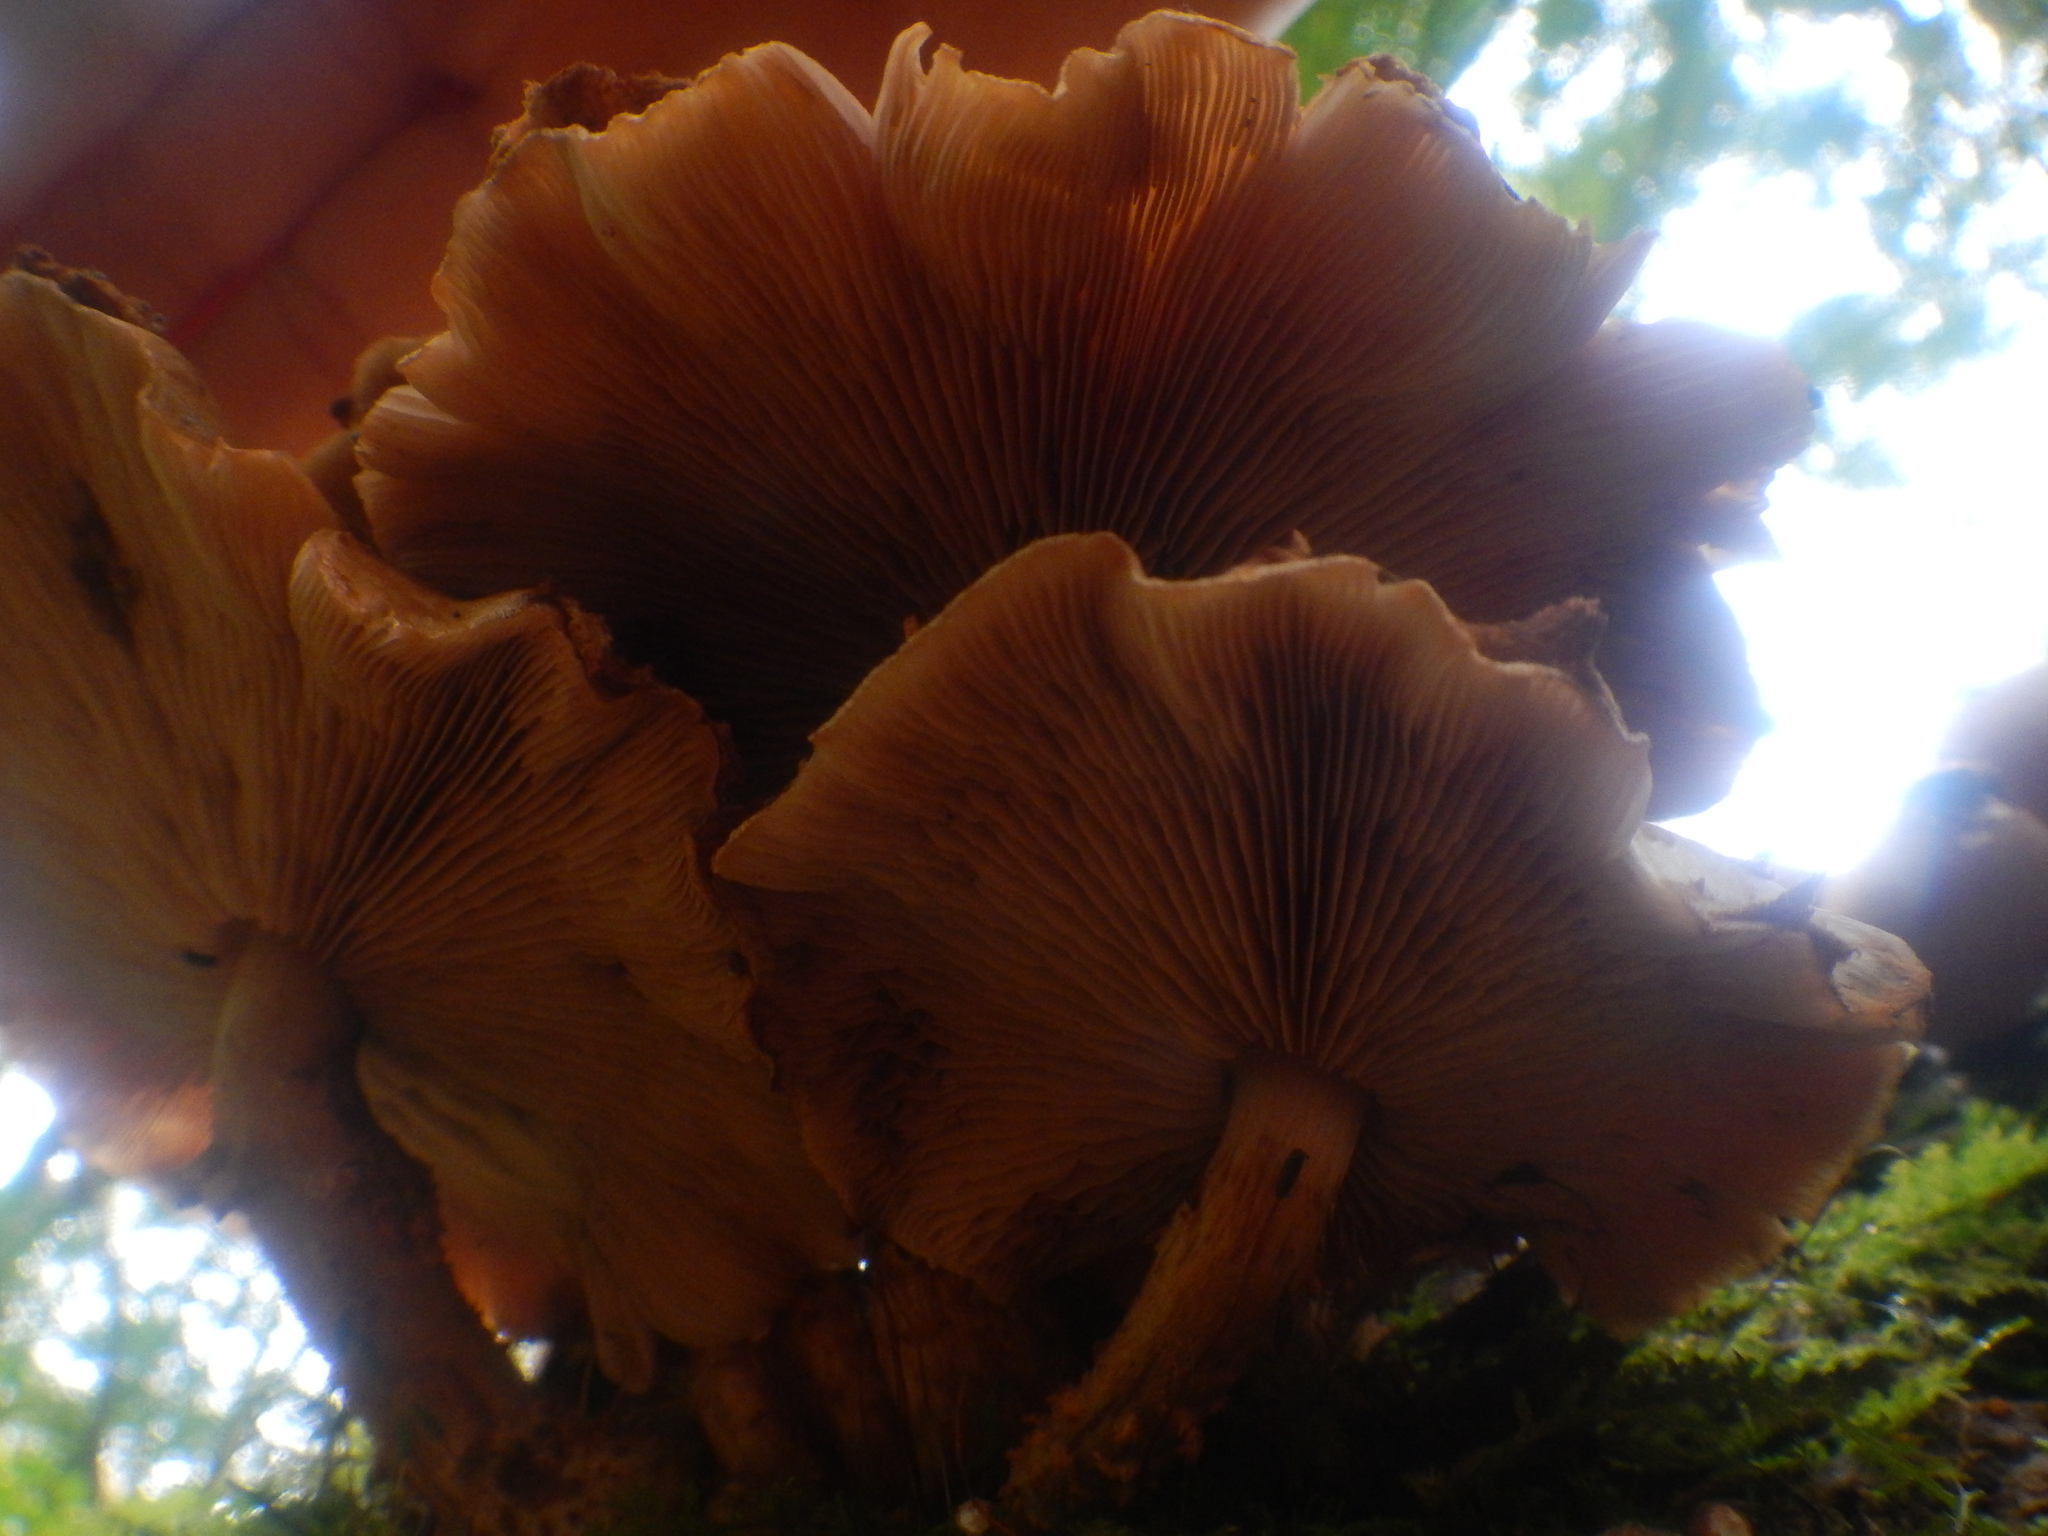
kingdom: Fungi
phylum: Basidiomycota
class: Agaricomycetes
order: Agaricales
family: Strophariaceae
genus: Pholiota
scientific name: Pholiota squarrosoides
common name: Sharp-scaly pholiota
